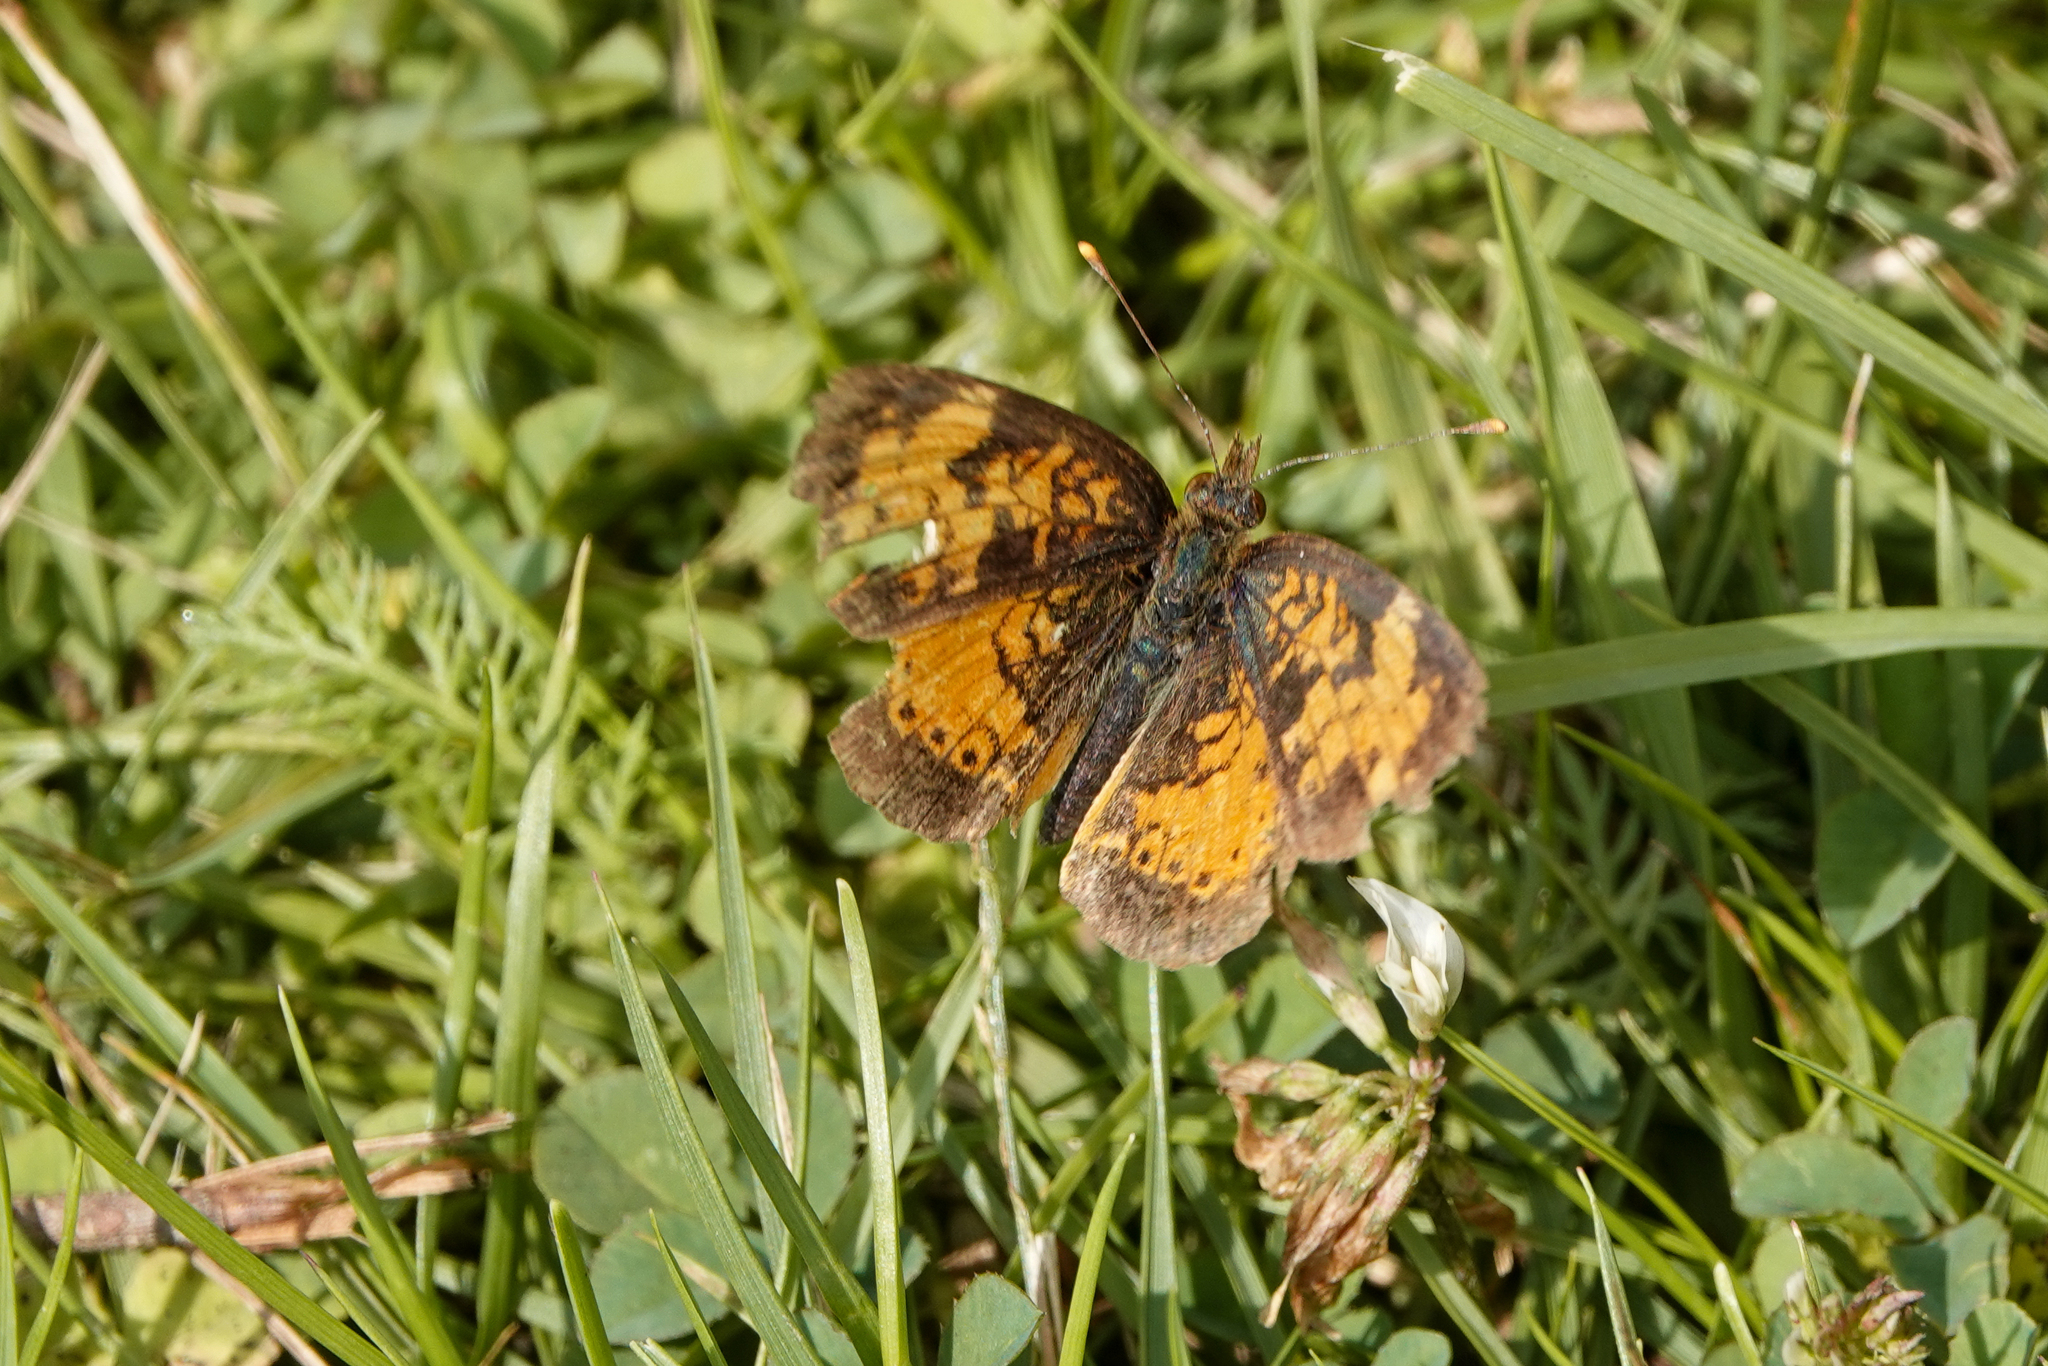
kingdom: Animalia
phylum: Arthropoda
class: Insecta
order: Lepidoptera
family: Nymphalidae
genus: Phyciodes
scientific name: Phyciodes tharos
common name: Pearl crescent
